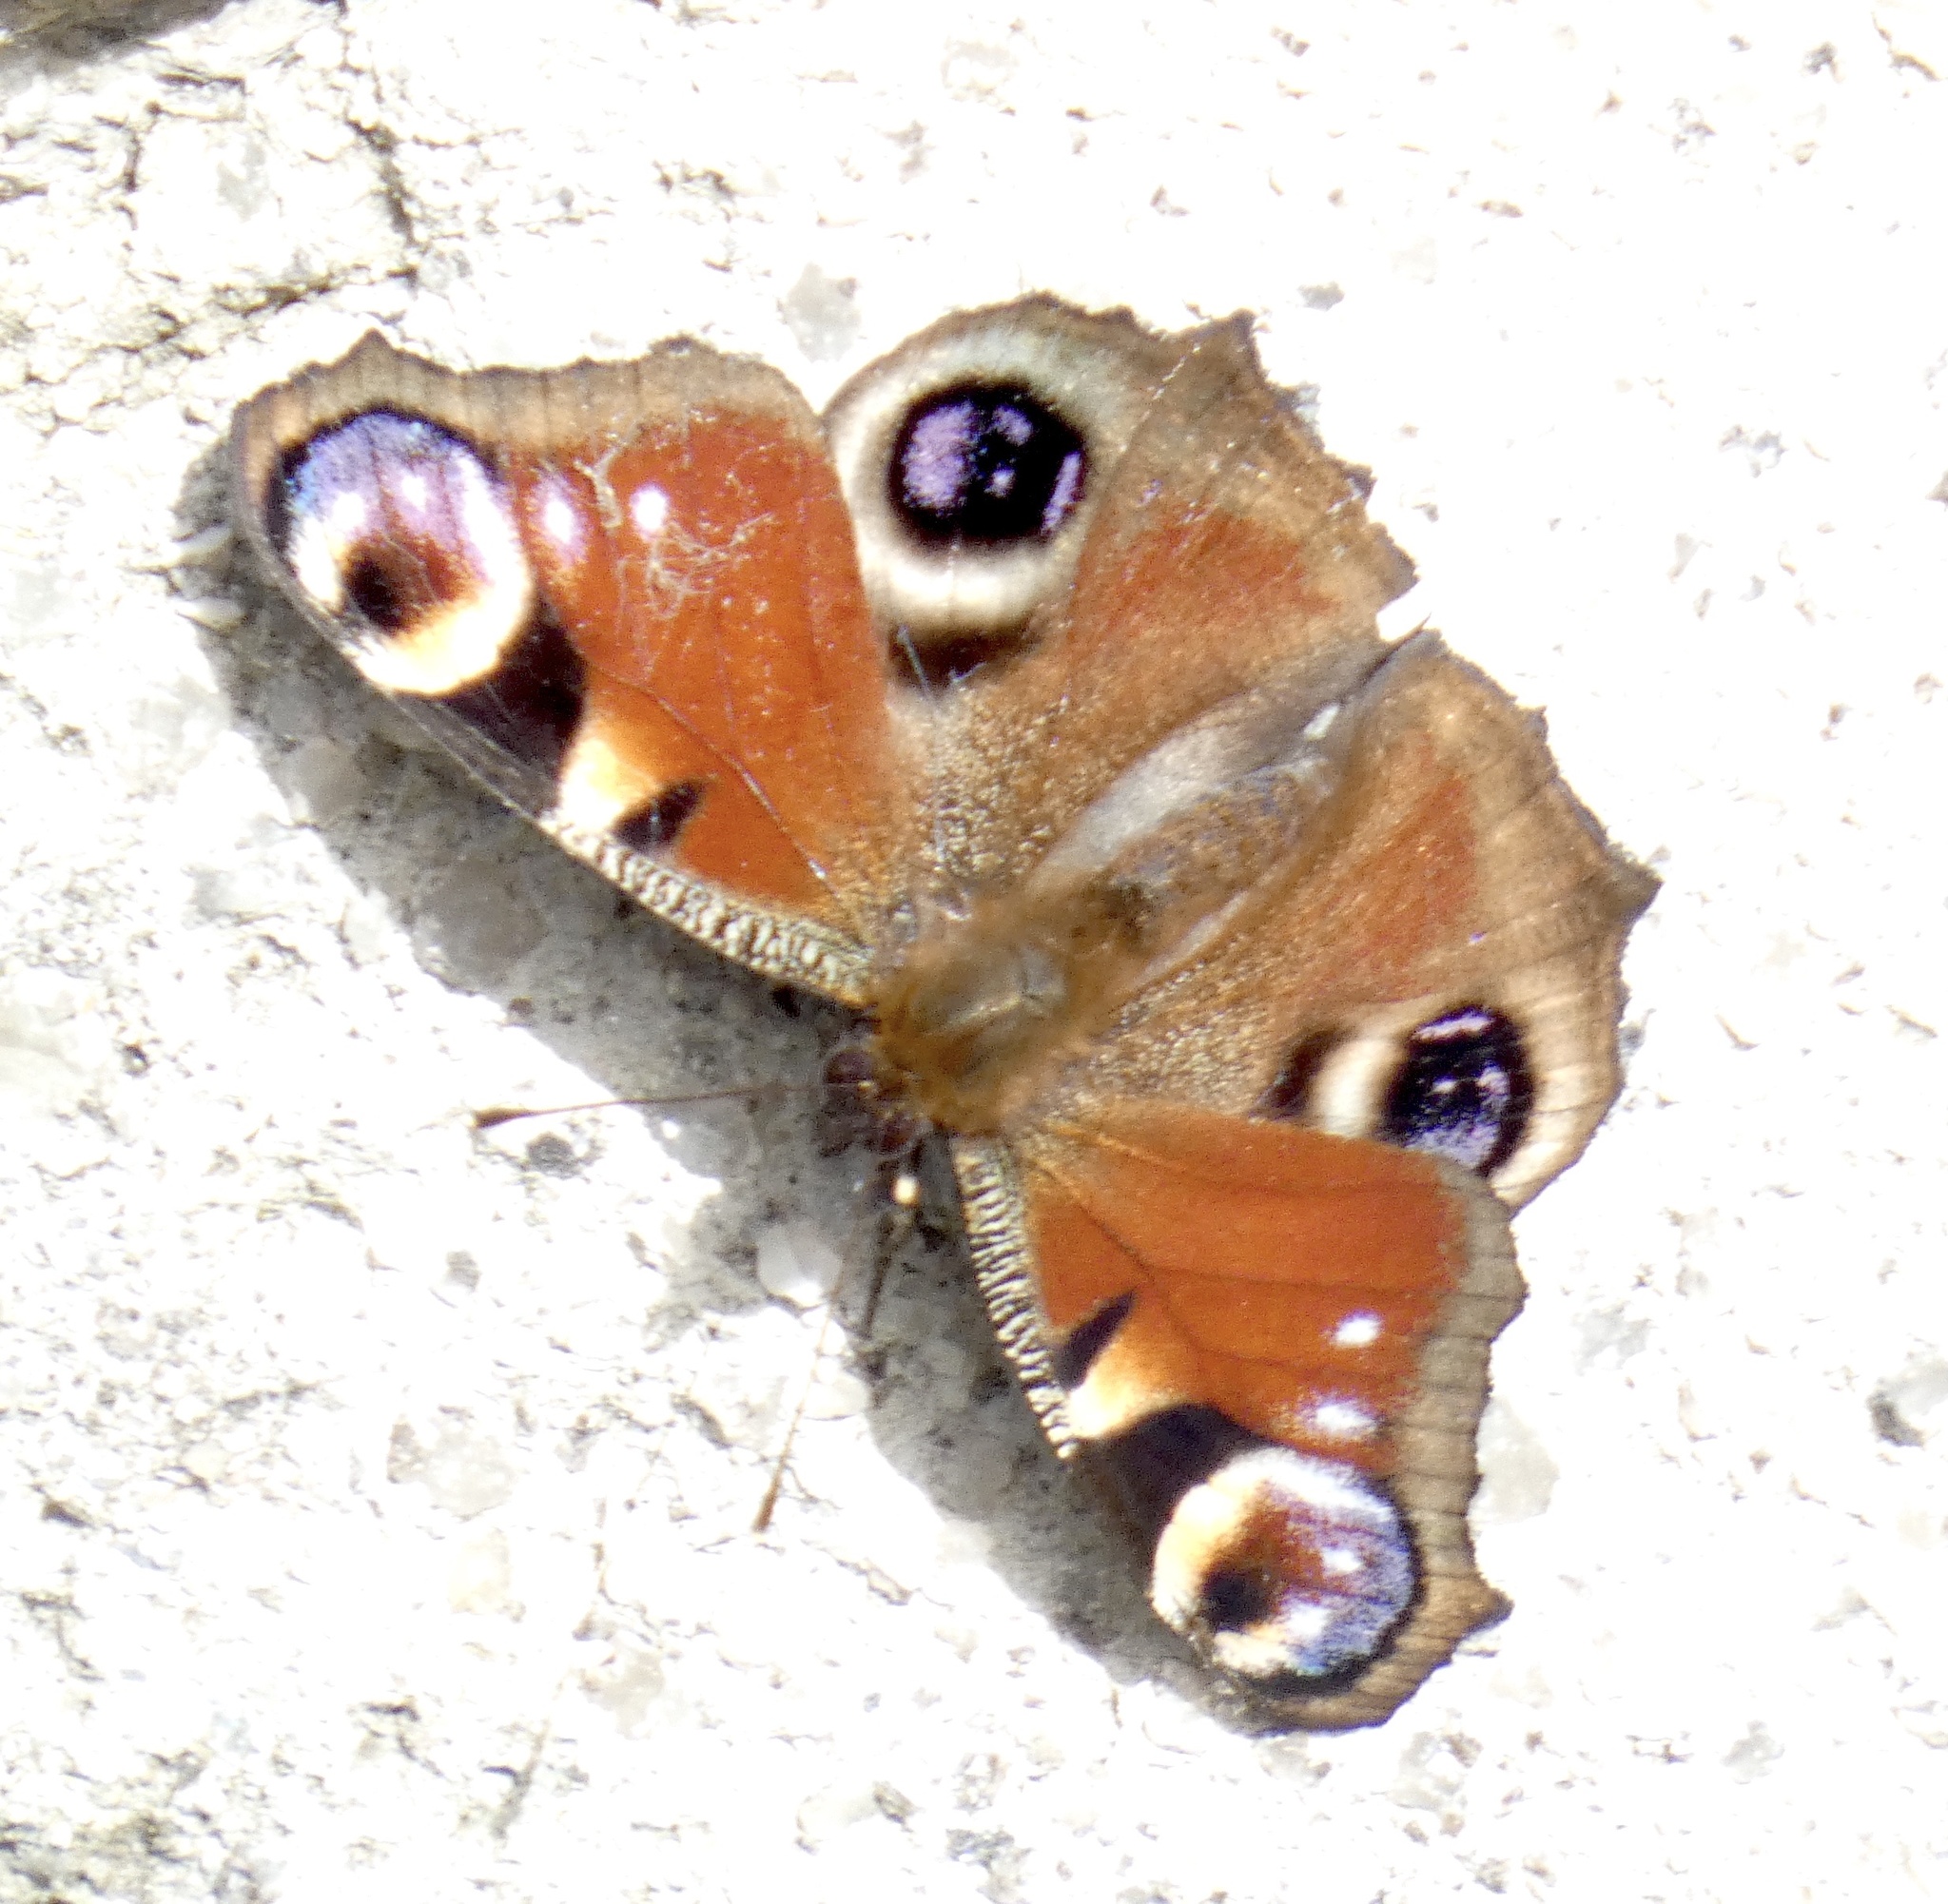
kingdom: Animalia
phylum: Arthropoda
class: Insecta
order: Lepidoptera
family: Nymphalidae
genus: Aglais
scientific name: Aglais io
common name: Peacock
